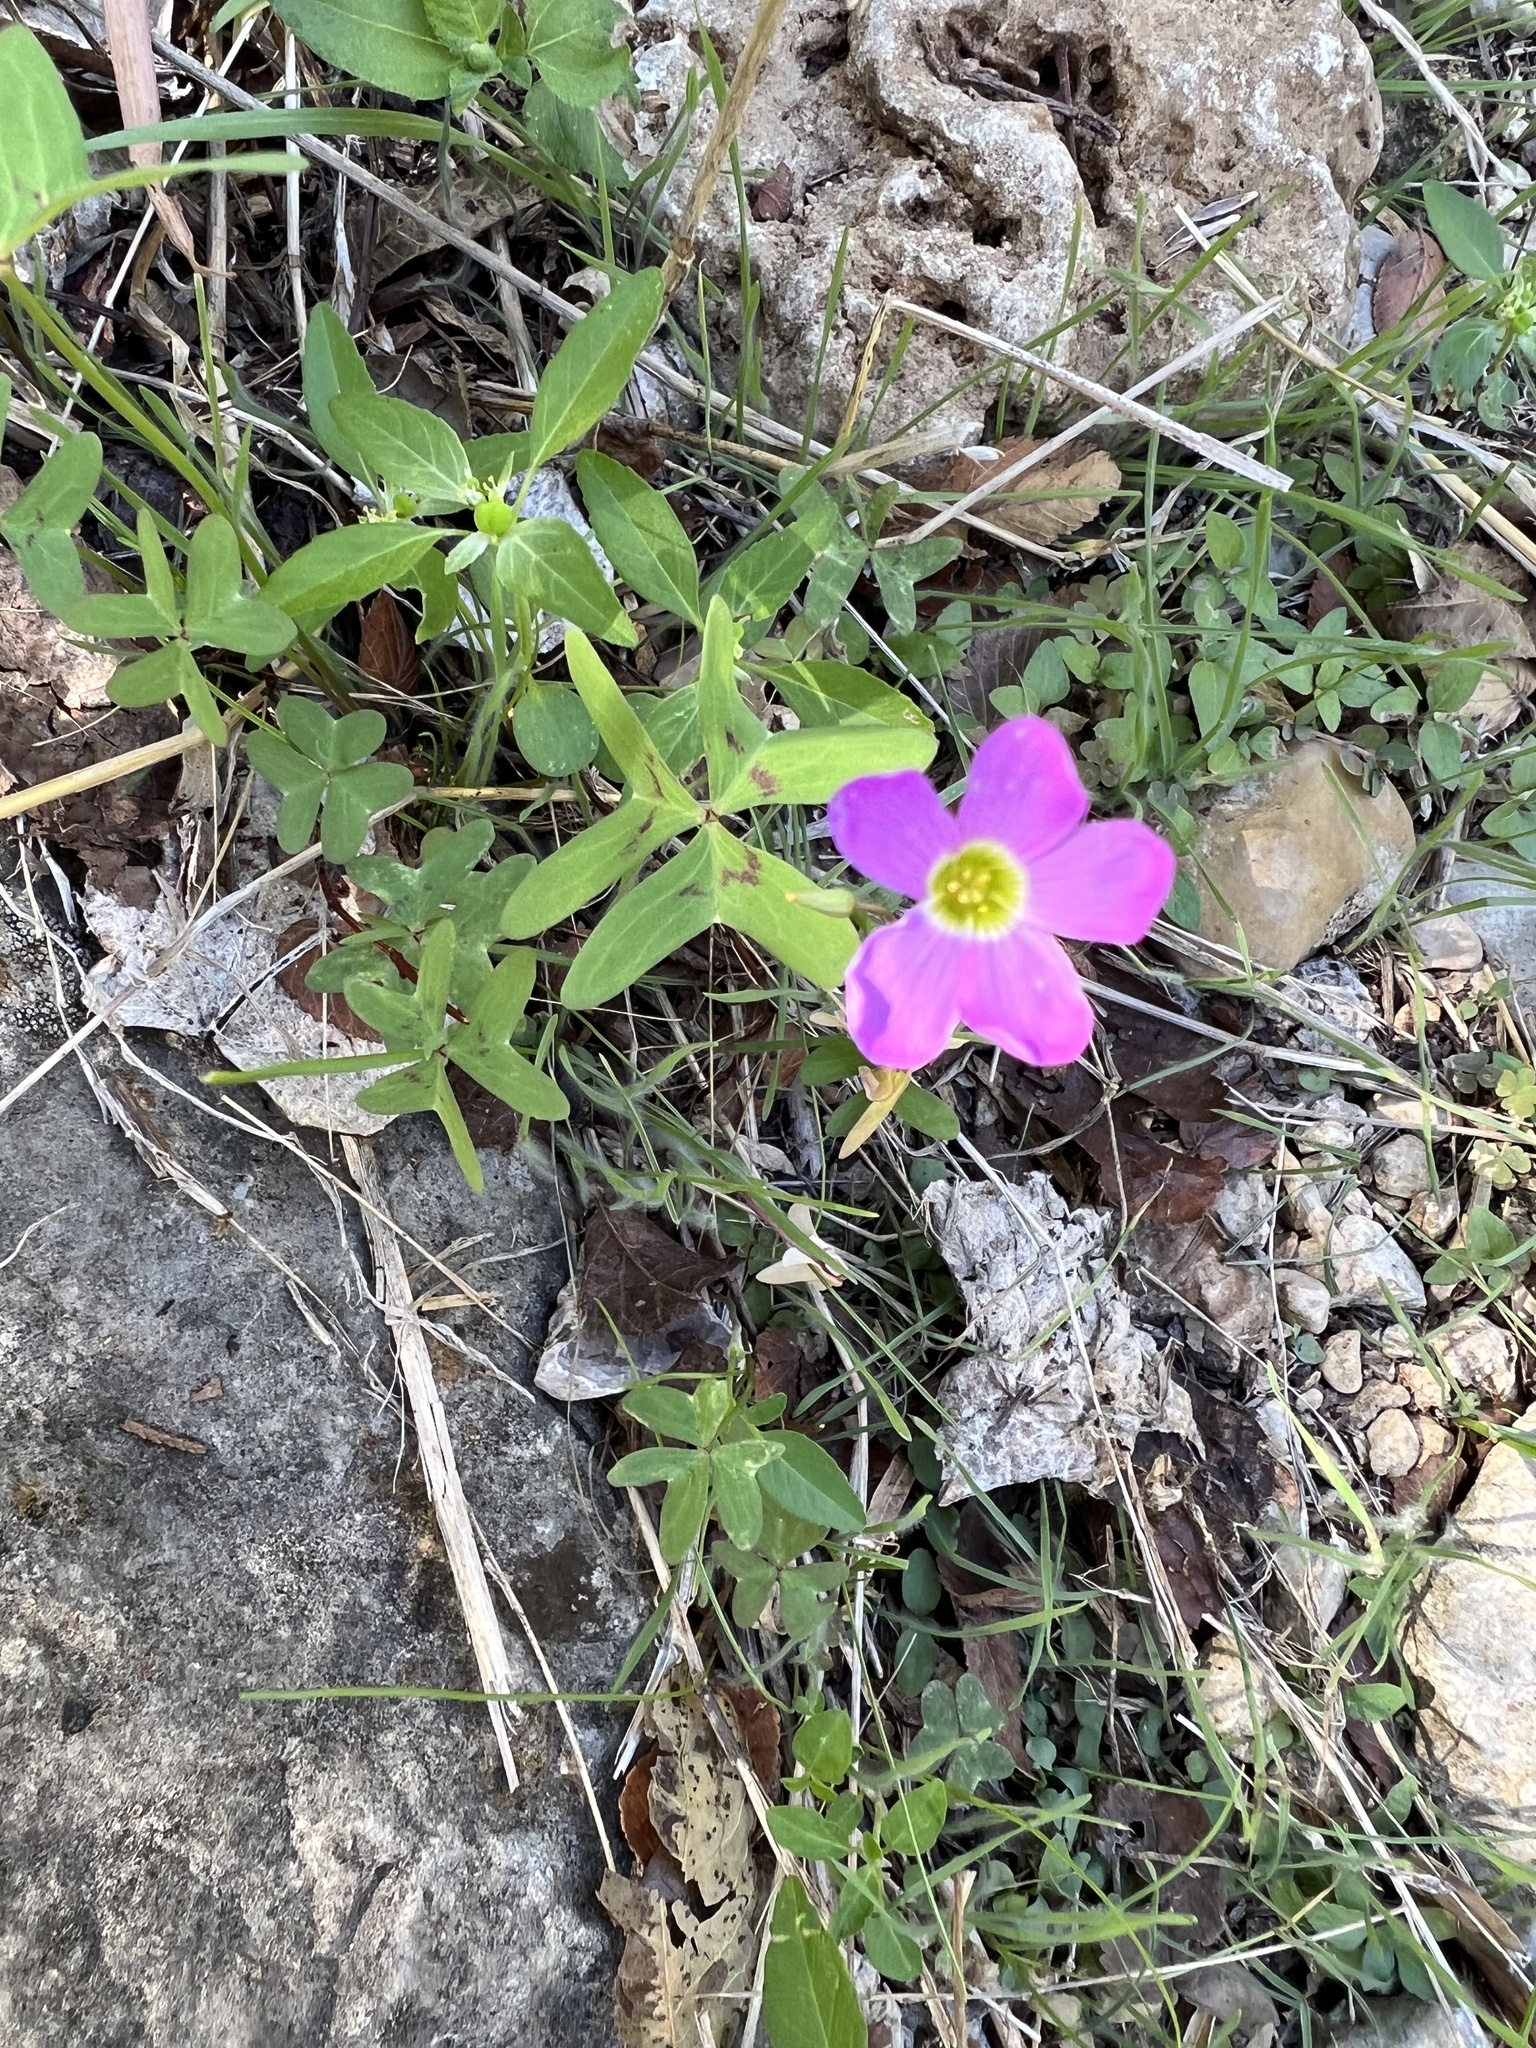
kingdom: Plantae
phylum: Tracheophyta
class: Magnoliopsida
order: Oxalidales
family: Oxalidaceae
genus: Oxalis
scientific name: Oxalis drummondii
